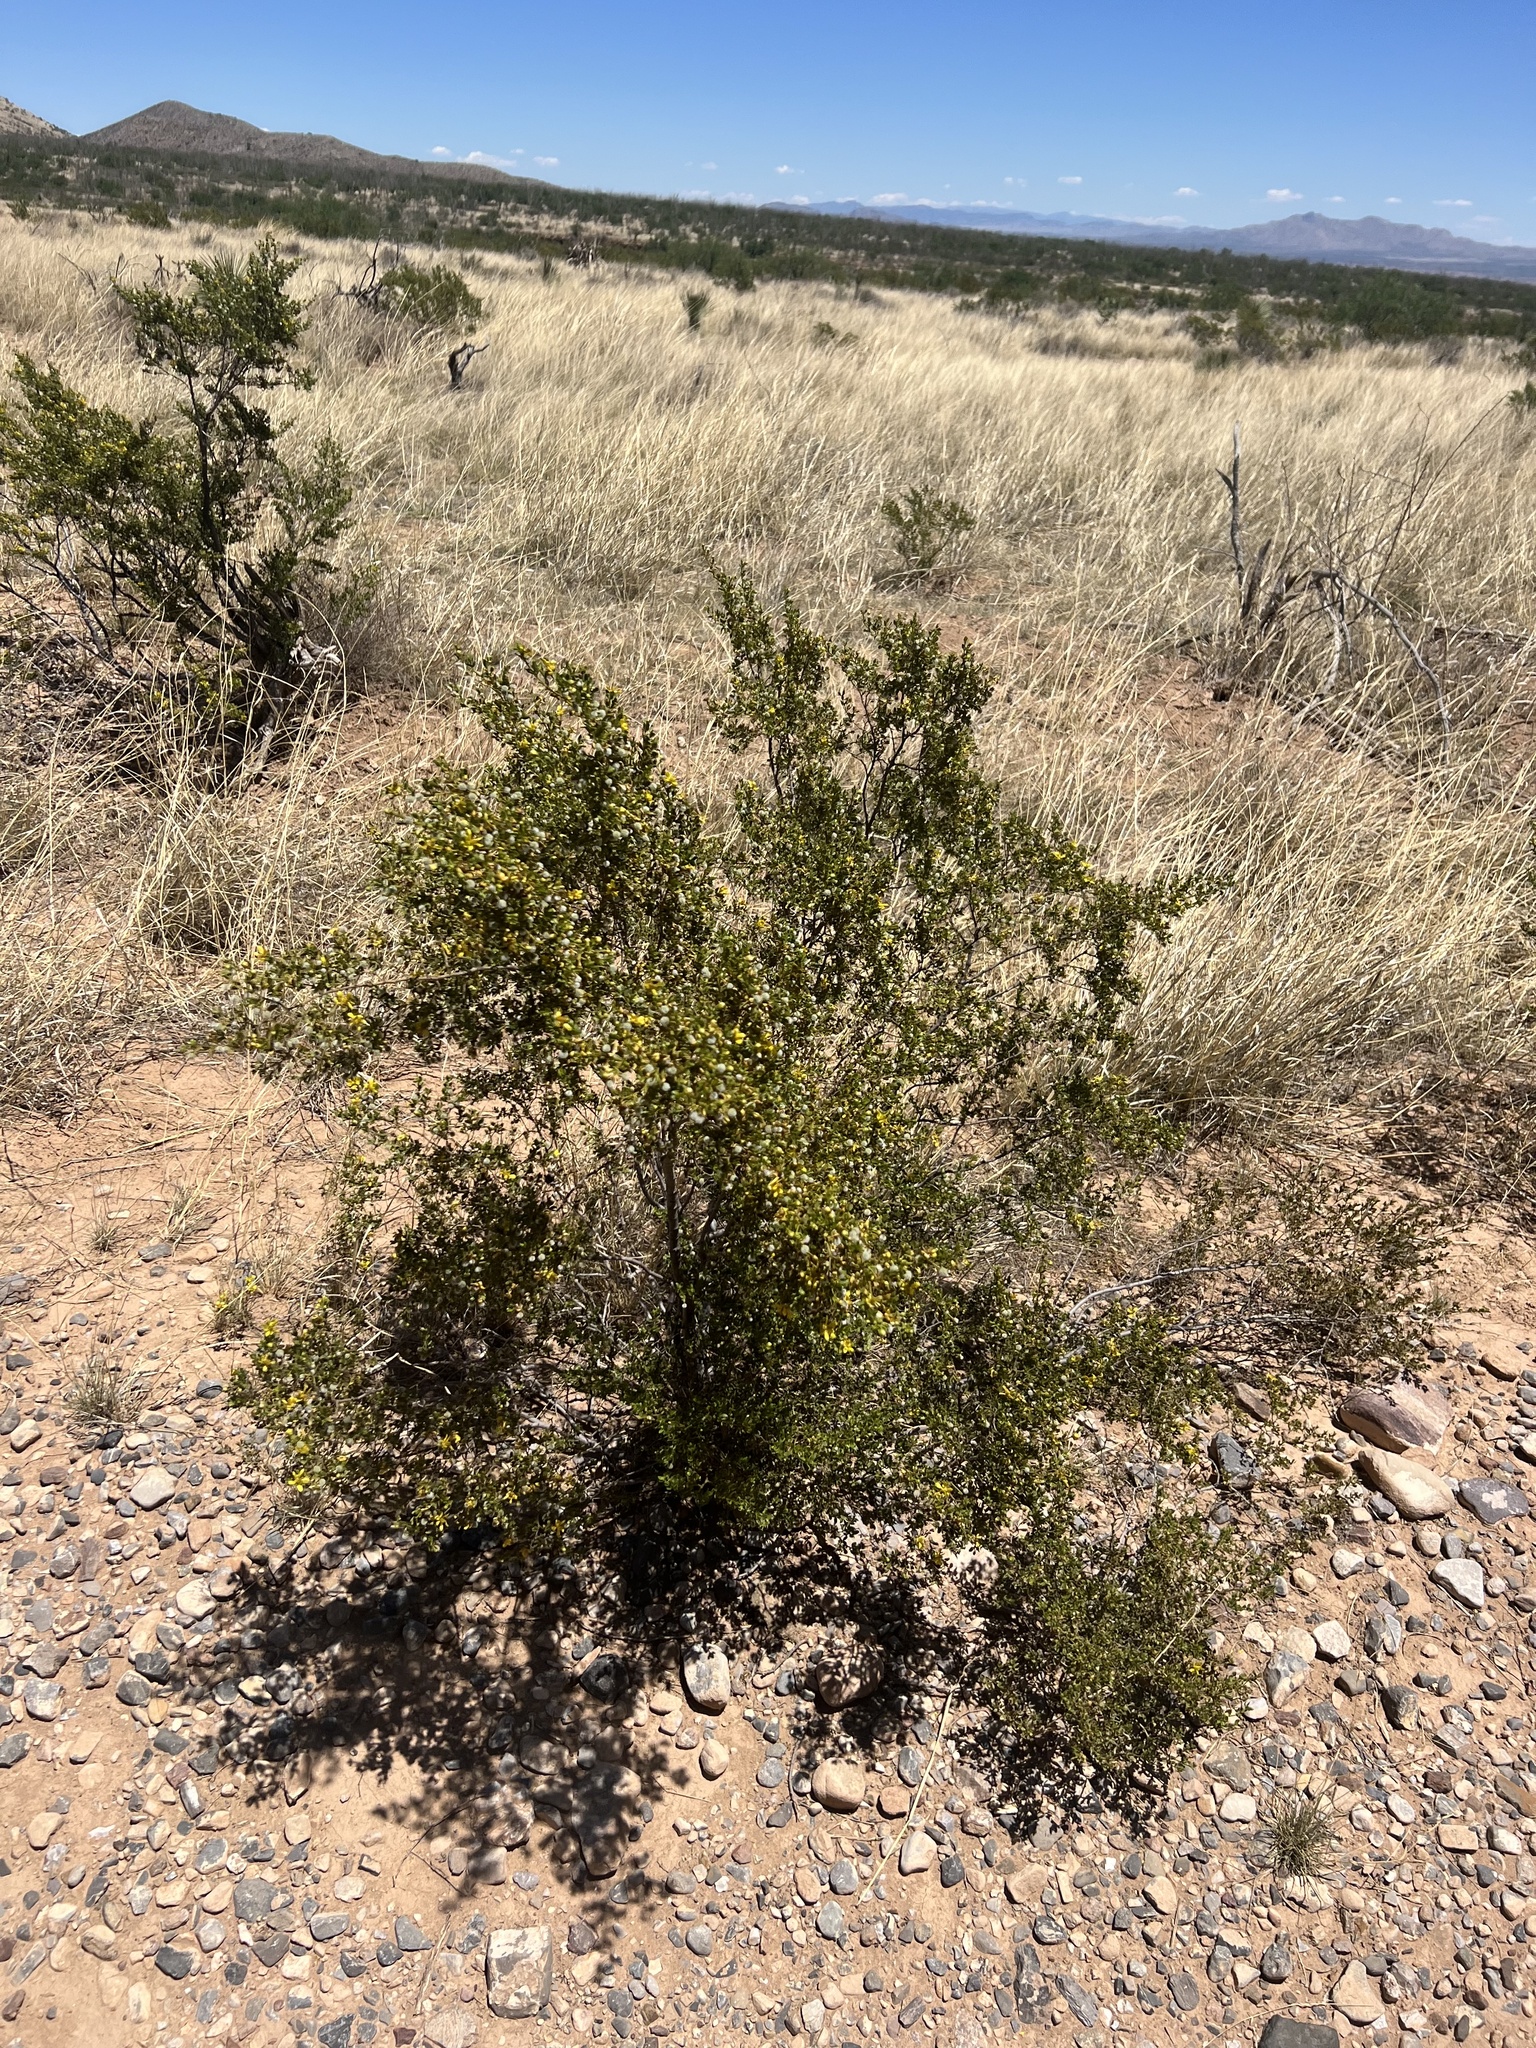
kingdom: Plantae
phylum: Tracheophyta
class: Magnoliopsida
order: Zygophyllales
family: Zygophyllaceae
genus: Larrea
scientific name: Larrea tridentata
